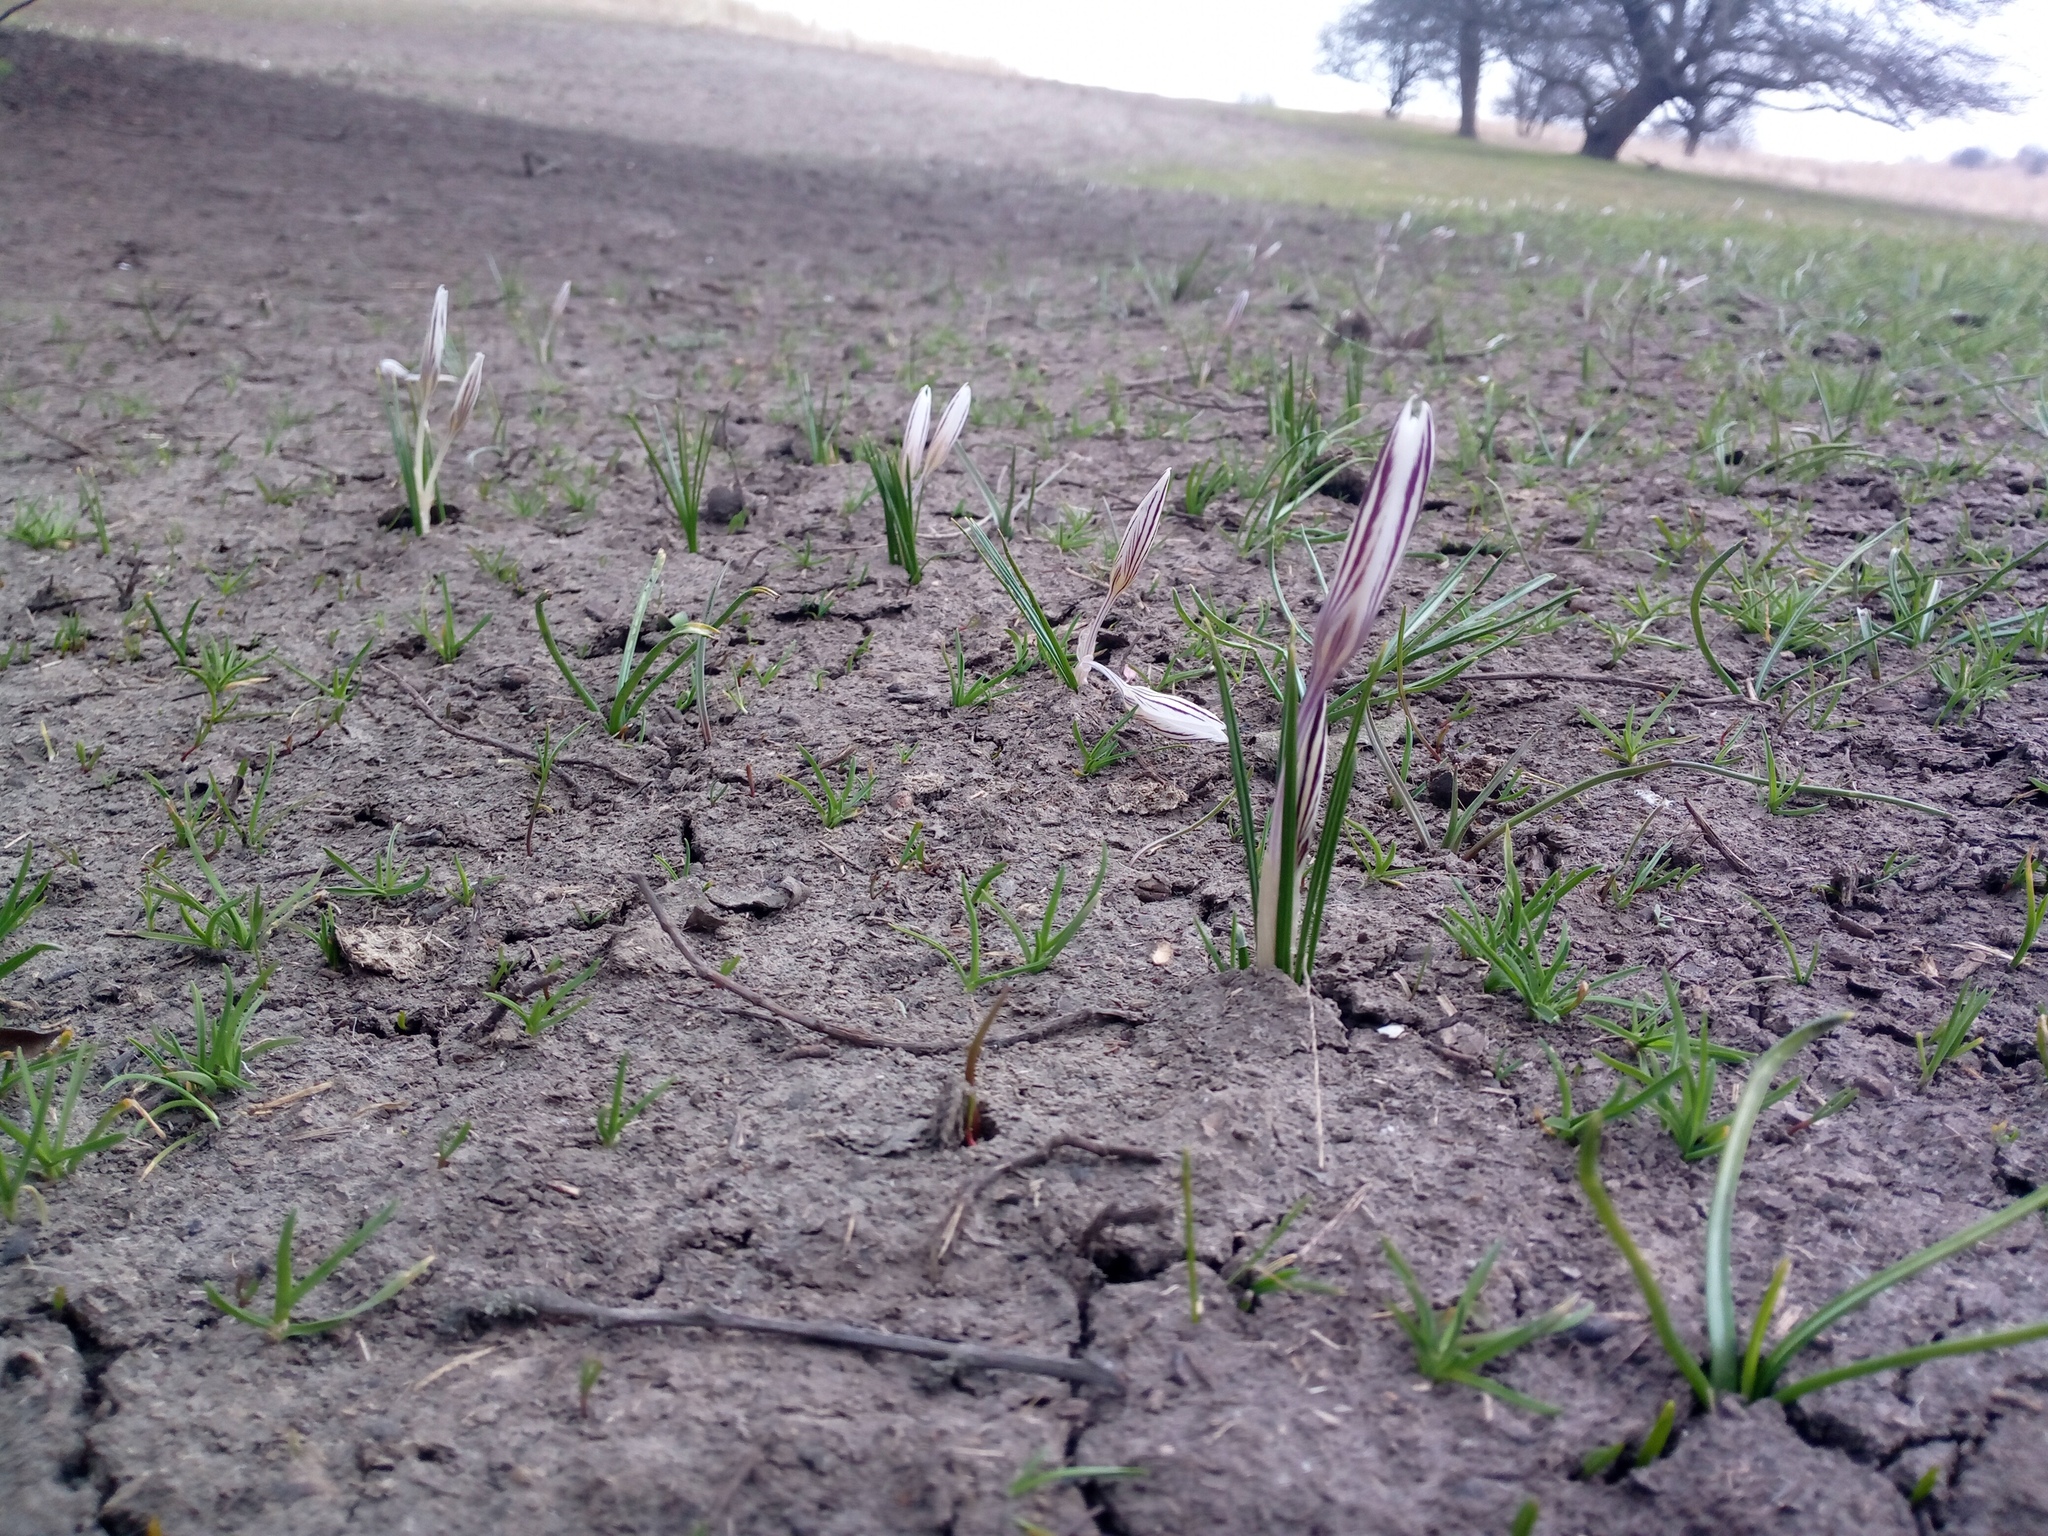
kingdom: Plantae
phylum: Tracheophyta
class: Liliopsida
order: Asparagales
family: Iridaceae
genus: Crocus
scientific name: Crocus reticulatus
